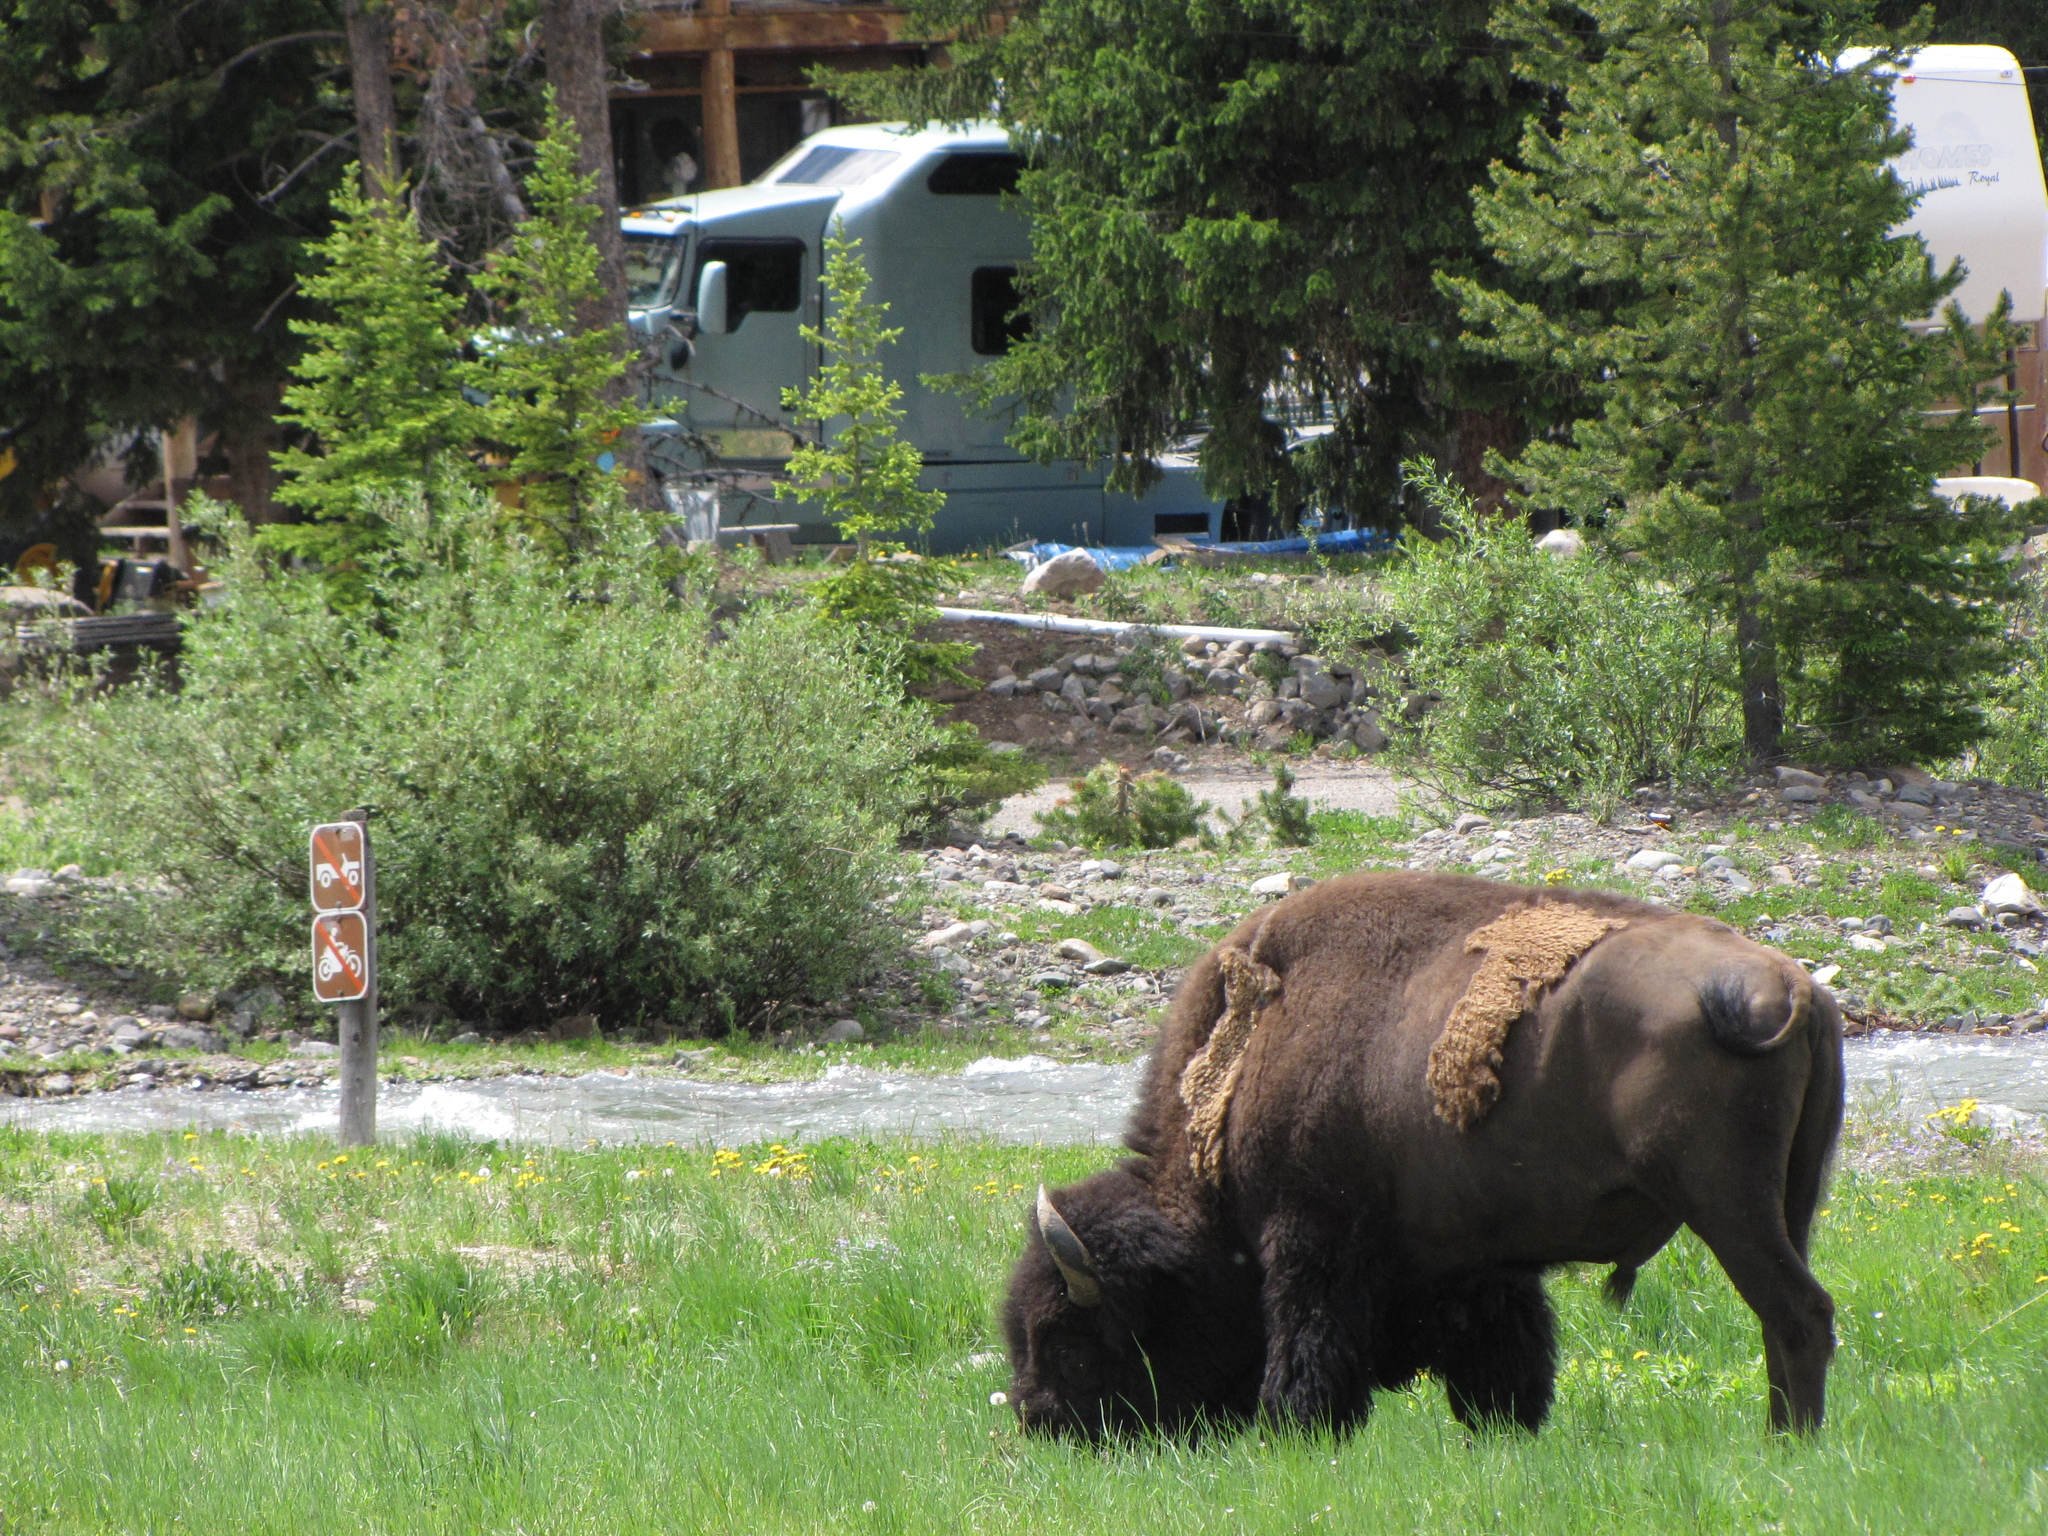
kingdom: Animalia
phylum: Chordata
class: Mammalia
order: Artiodactyla
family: Bovidae
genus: Bison
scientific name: Bison bison
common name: American bison
